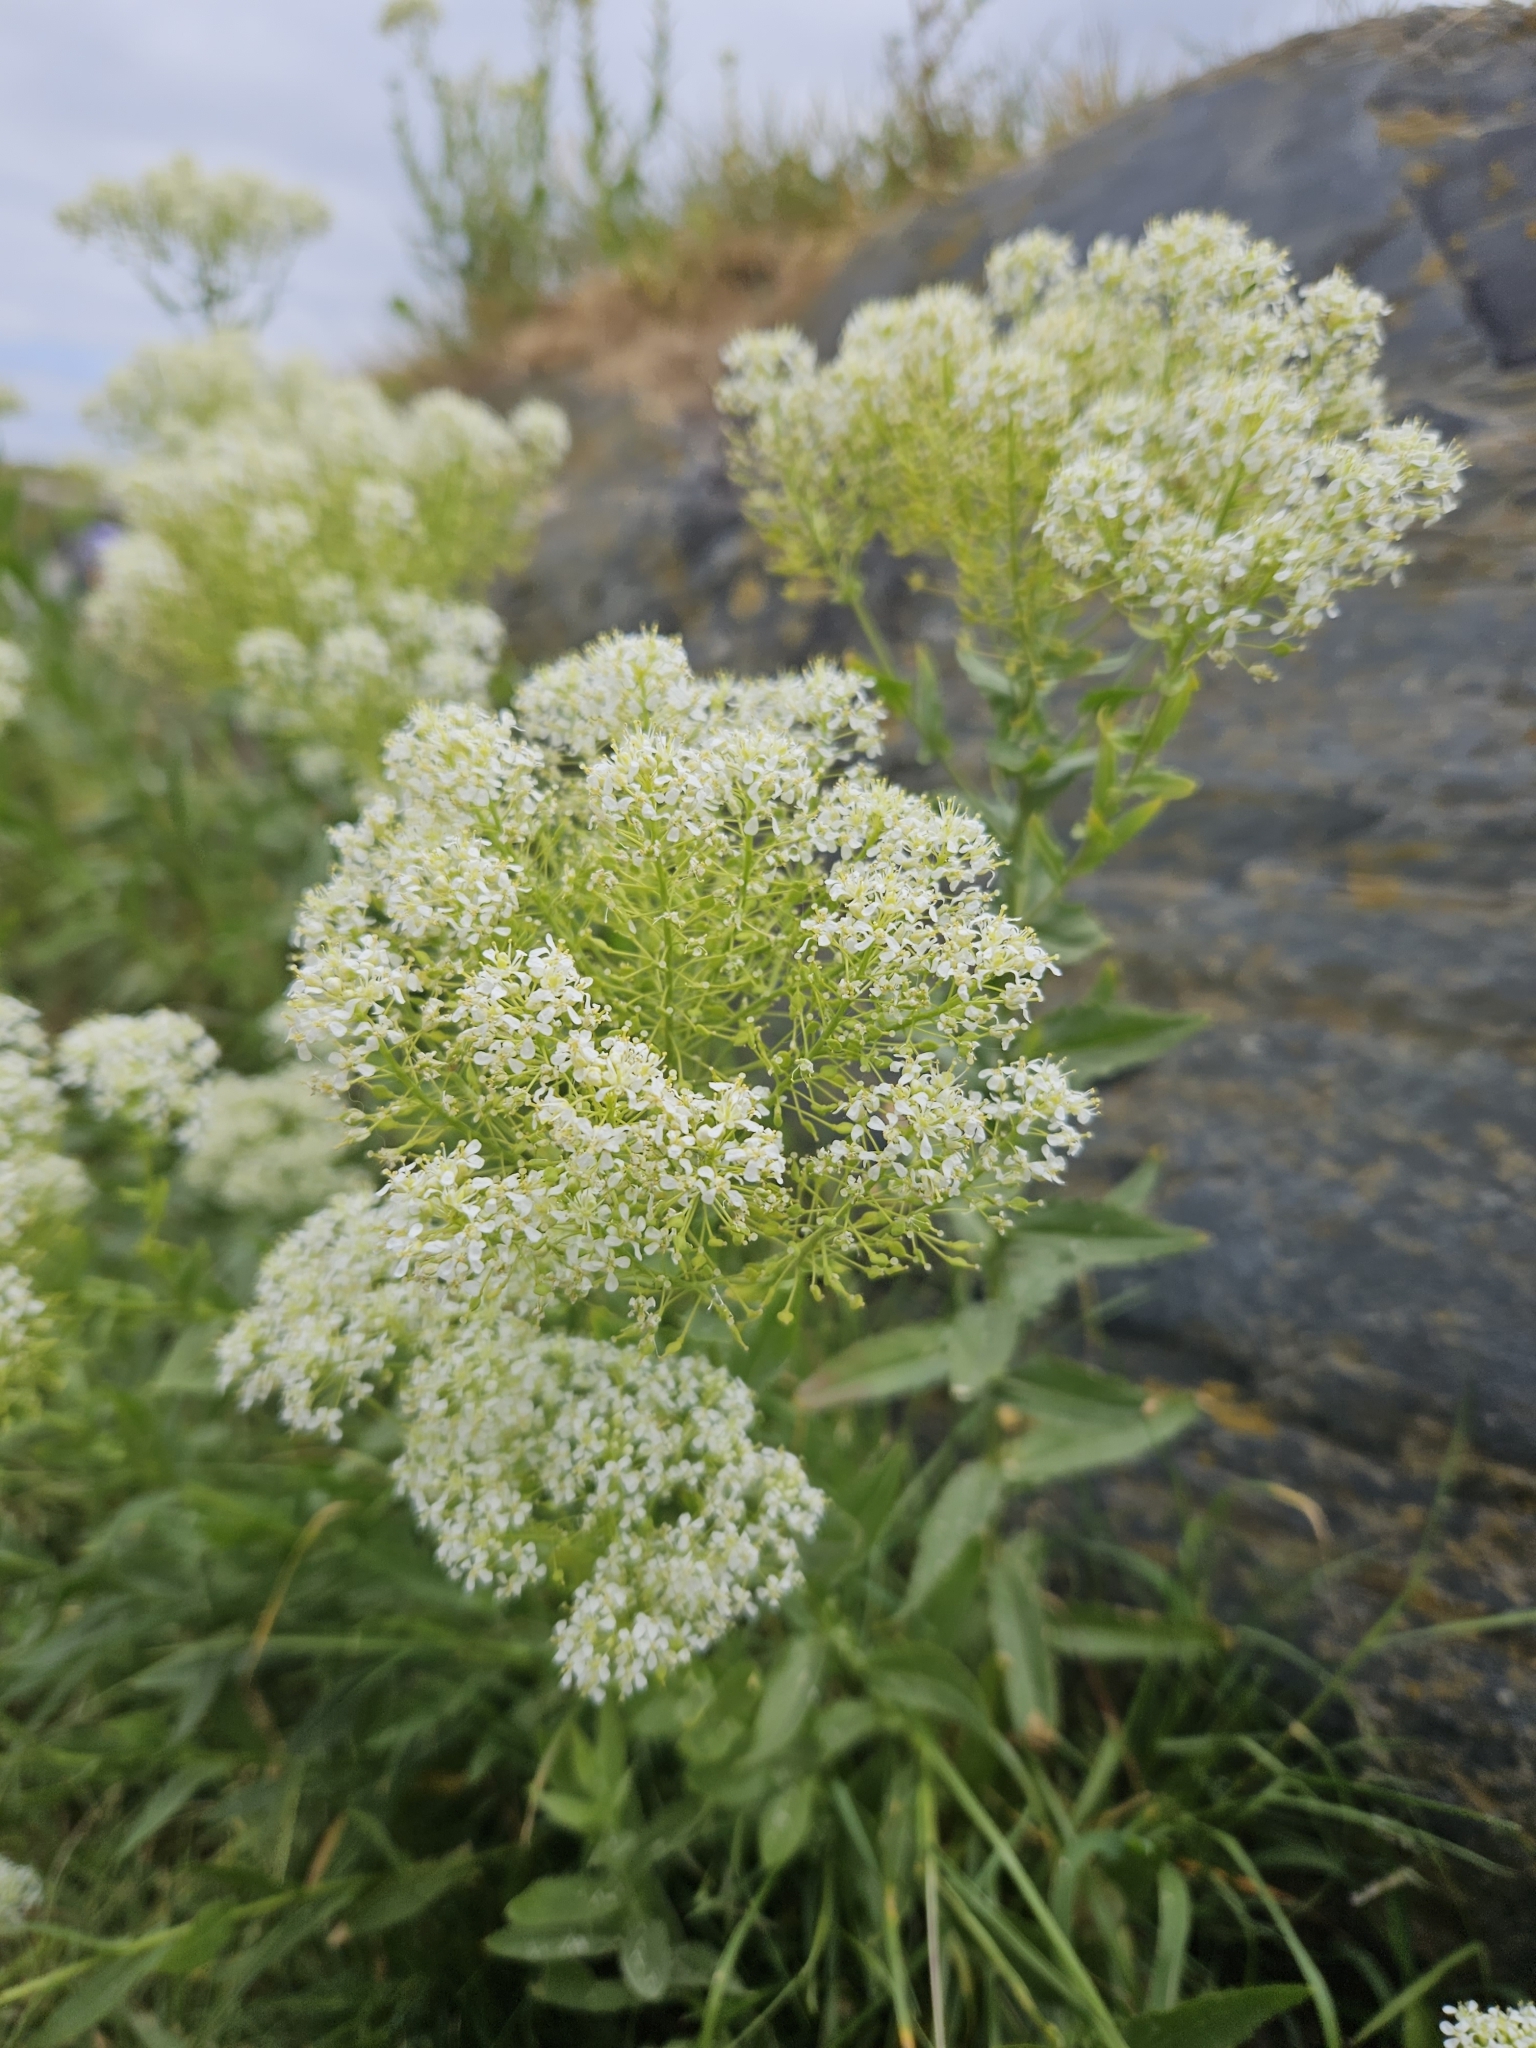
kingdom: Plantae
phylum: Tracheophyta
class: Magnoliopsida
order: Brassicales
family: Brassicaceae
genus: Lepidium
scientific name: Lepidium draba
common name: Hoary cress
